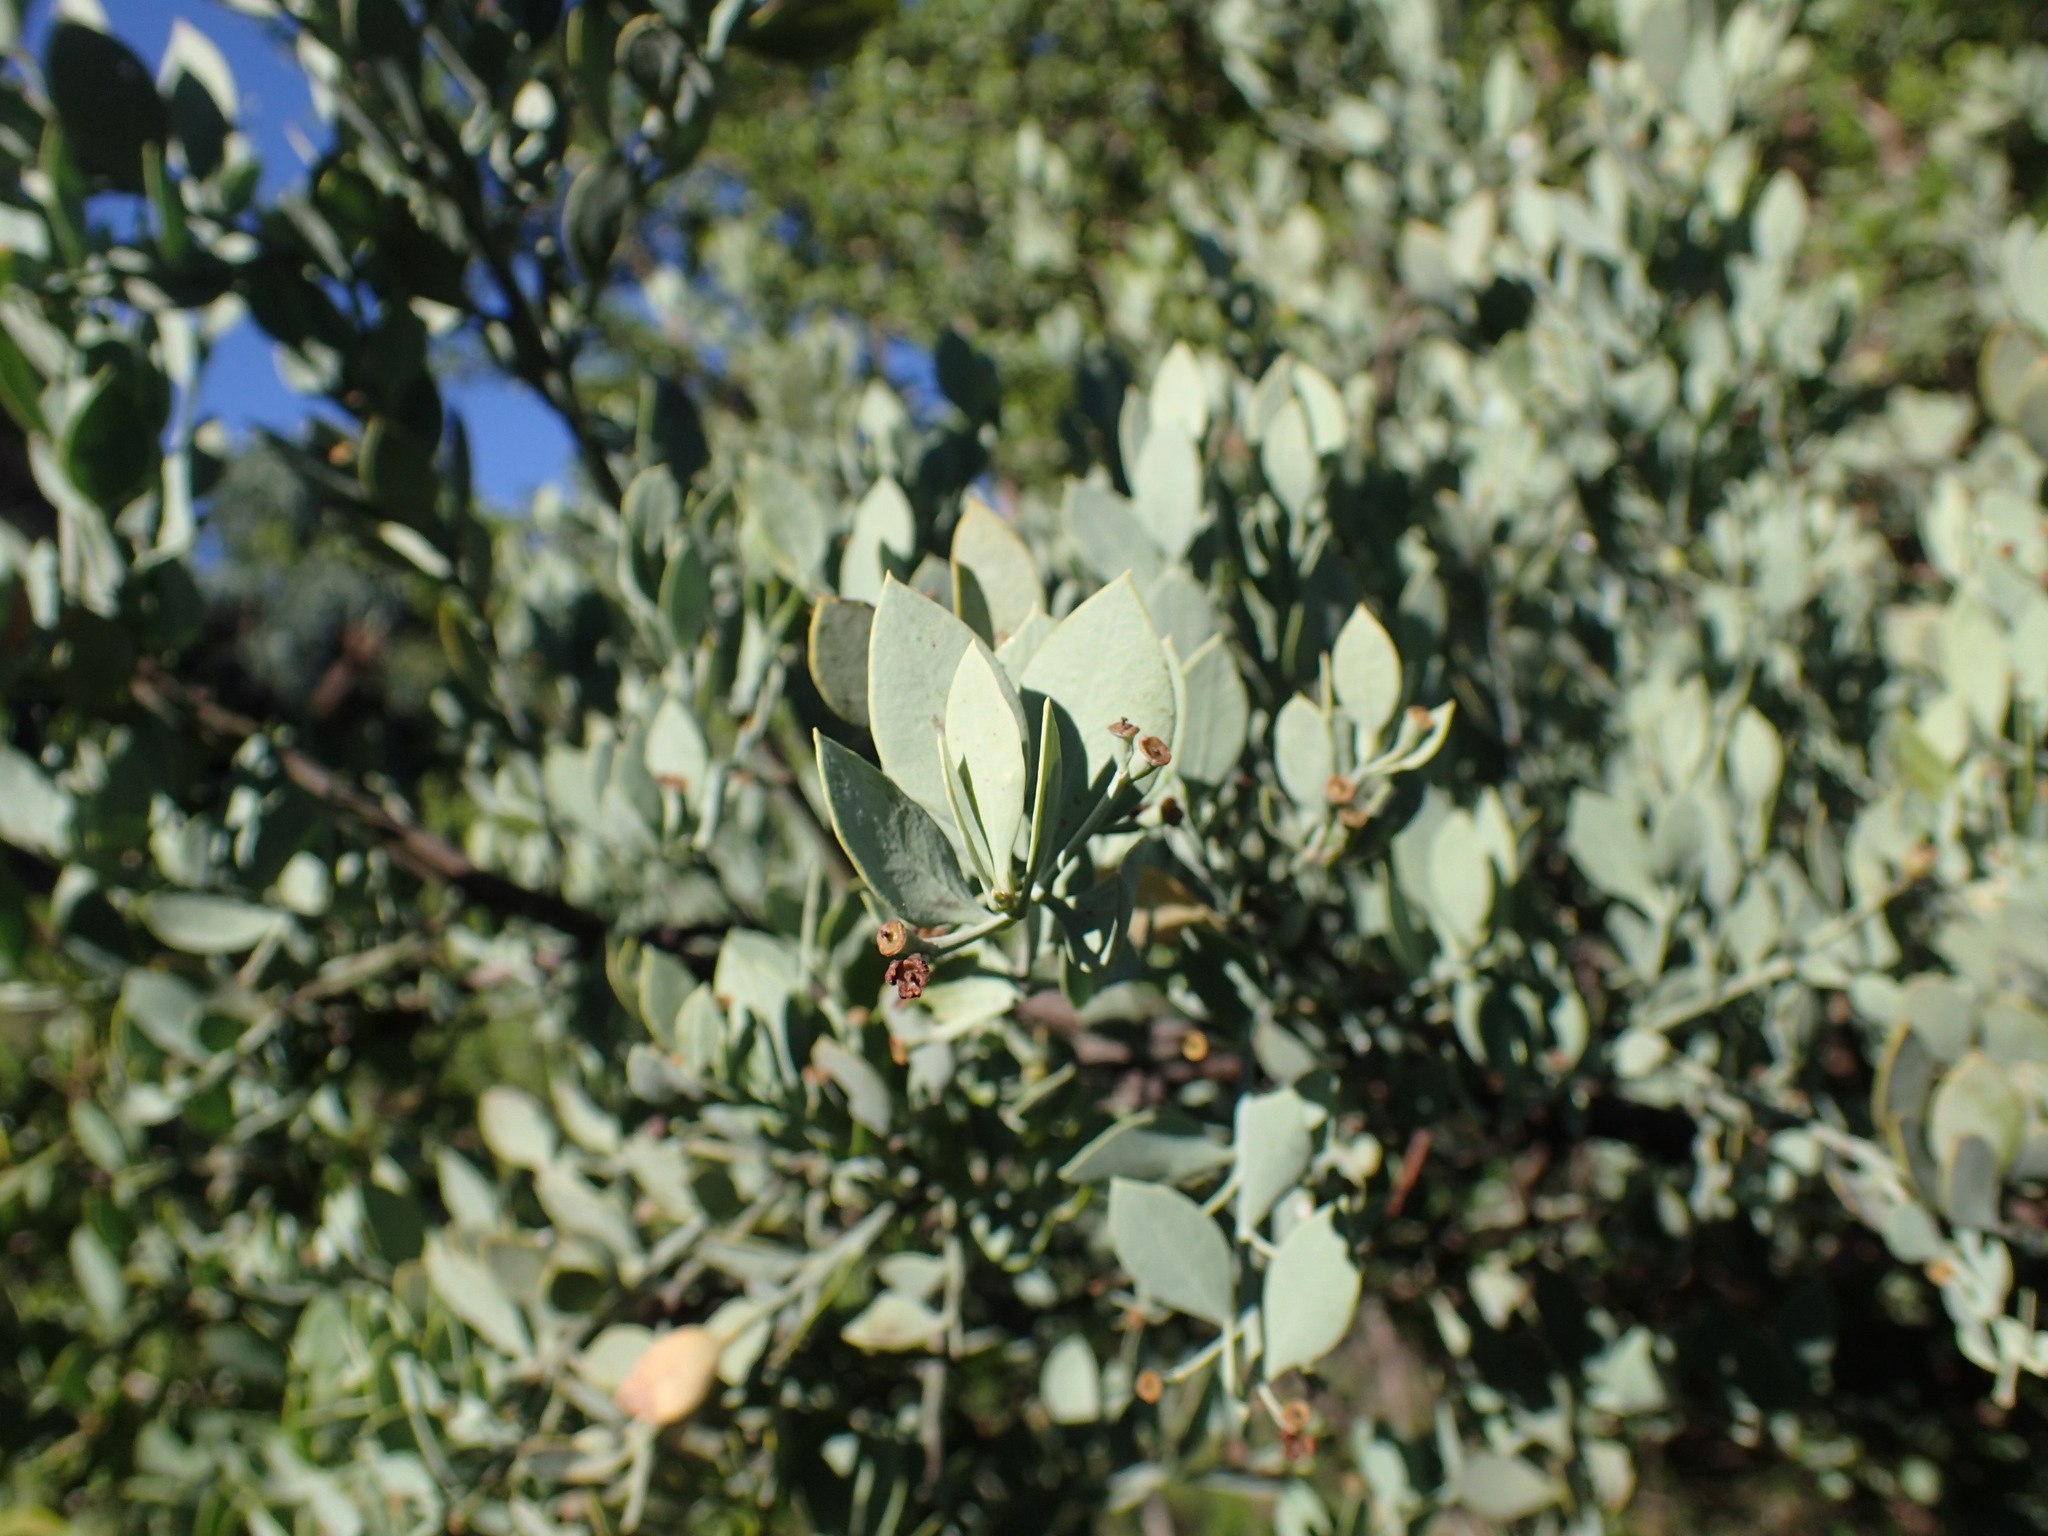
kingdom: Plantae
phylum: Tracheophyta
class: Magnoliopsida
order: Santalales
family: Santalaceae
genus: Osyris
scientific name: Osyris lanceolata
